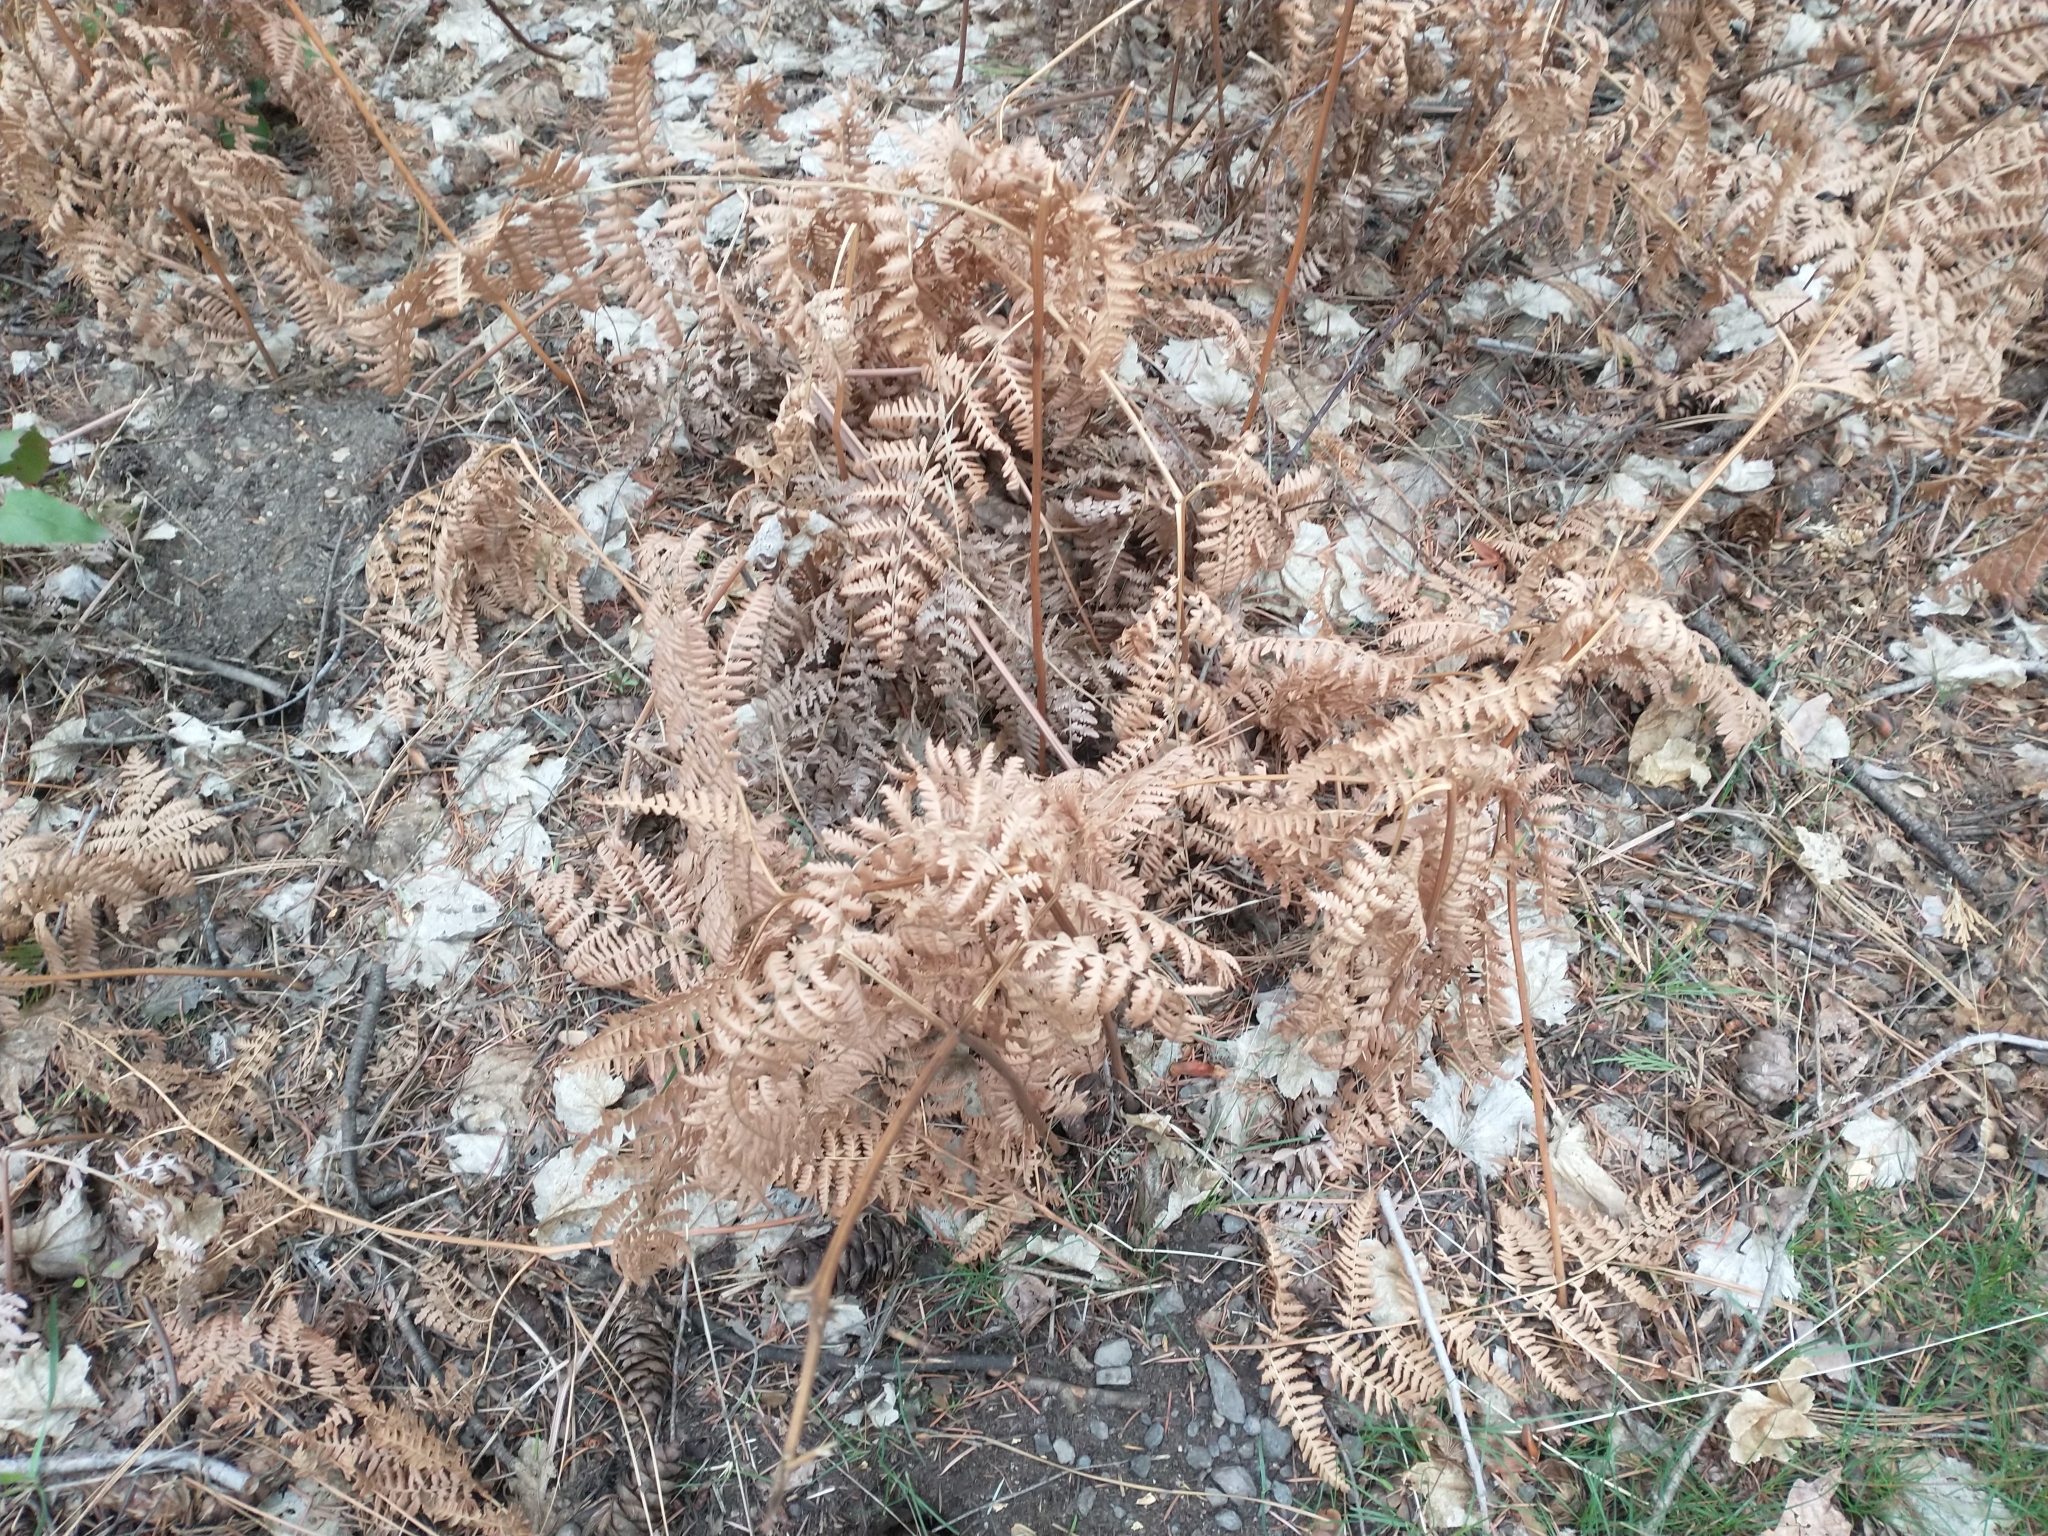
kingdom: Plantae
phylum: Tracheophyta
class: Polypodiopsida
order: Polypodiales
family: Dennstaedtiaceae
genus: Pteridium
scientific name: Pteridium aquilinum
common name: Bracken
